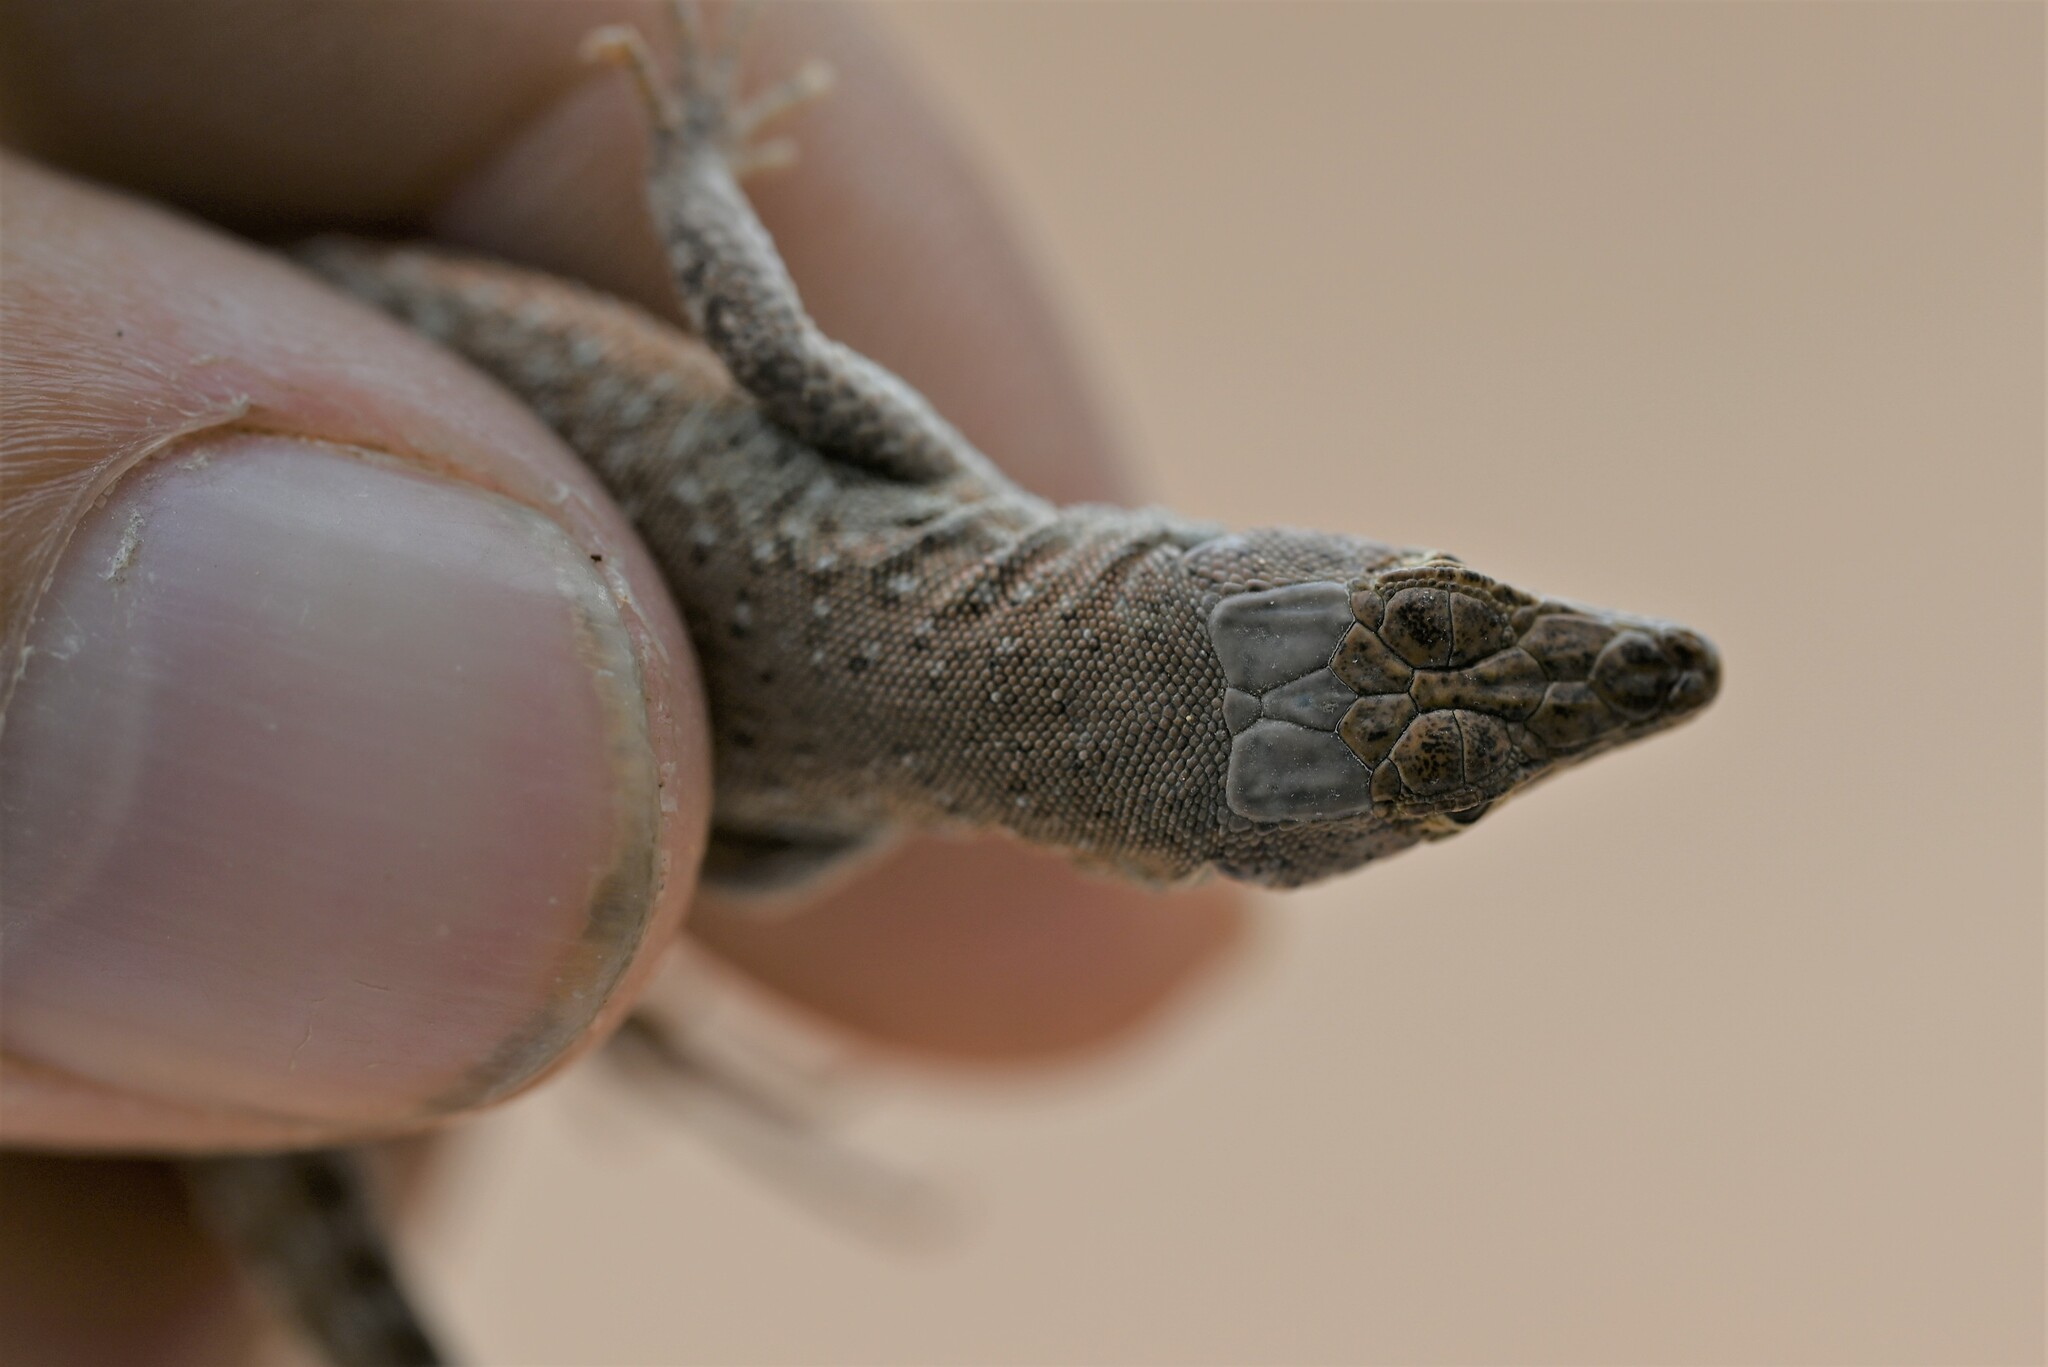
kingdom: Animalia
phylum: Chordata
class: Squamata
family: Lacertidae
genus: Mesalina
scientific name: Mesalina guttulata
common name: Desert lacerta
